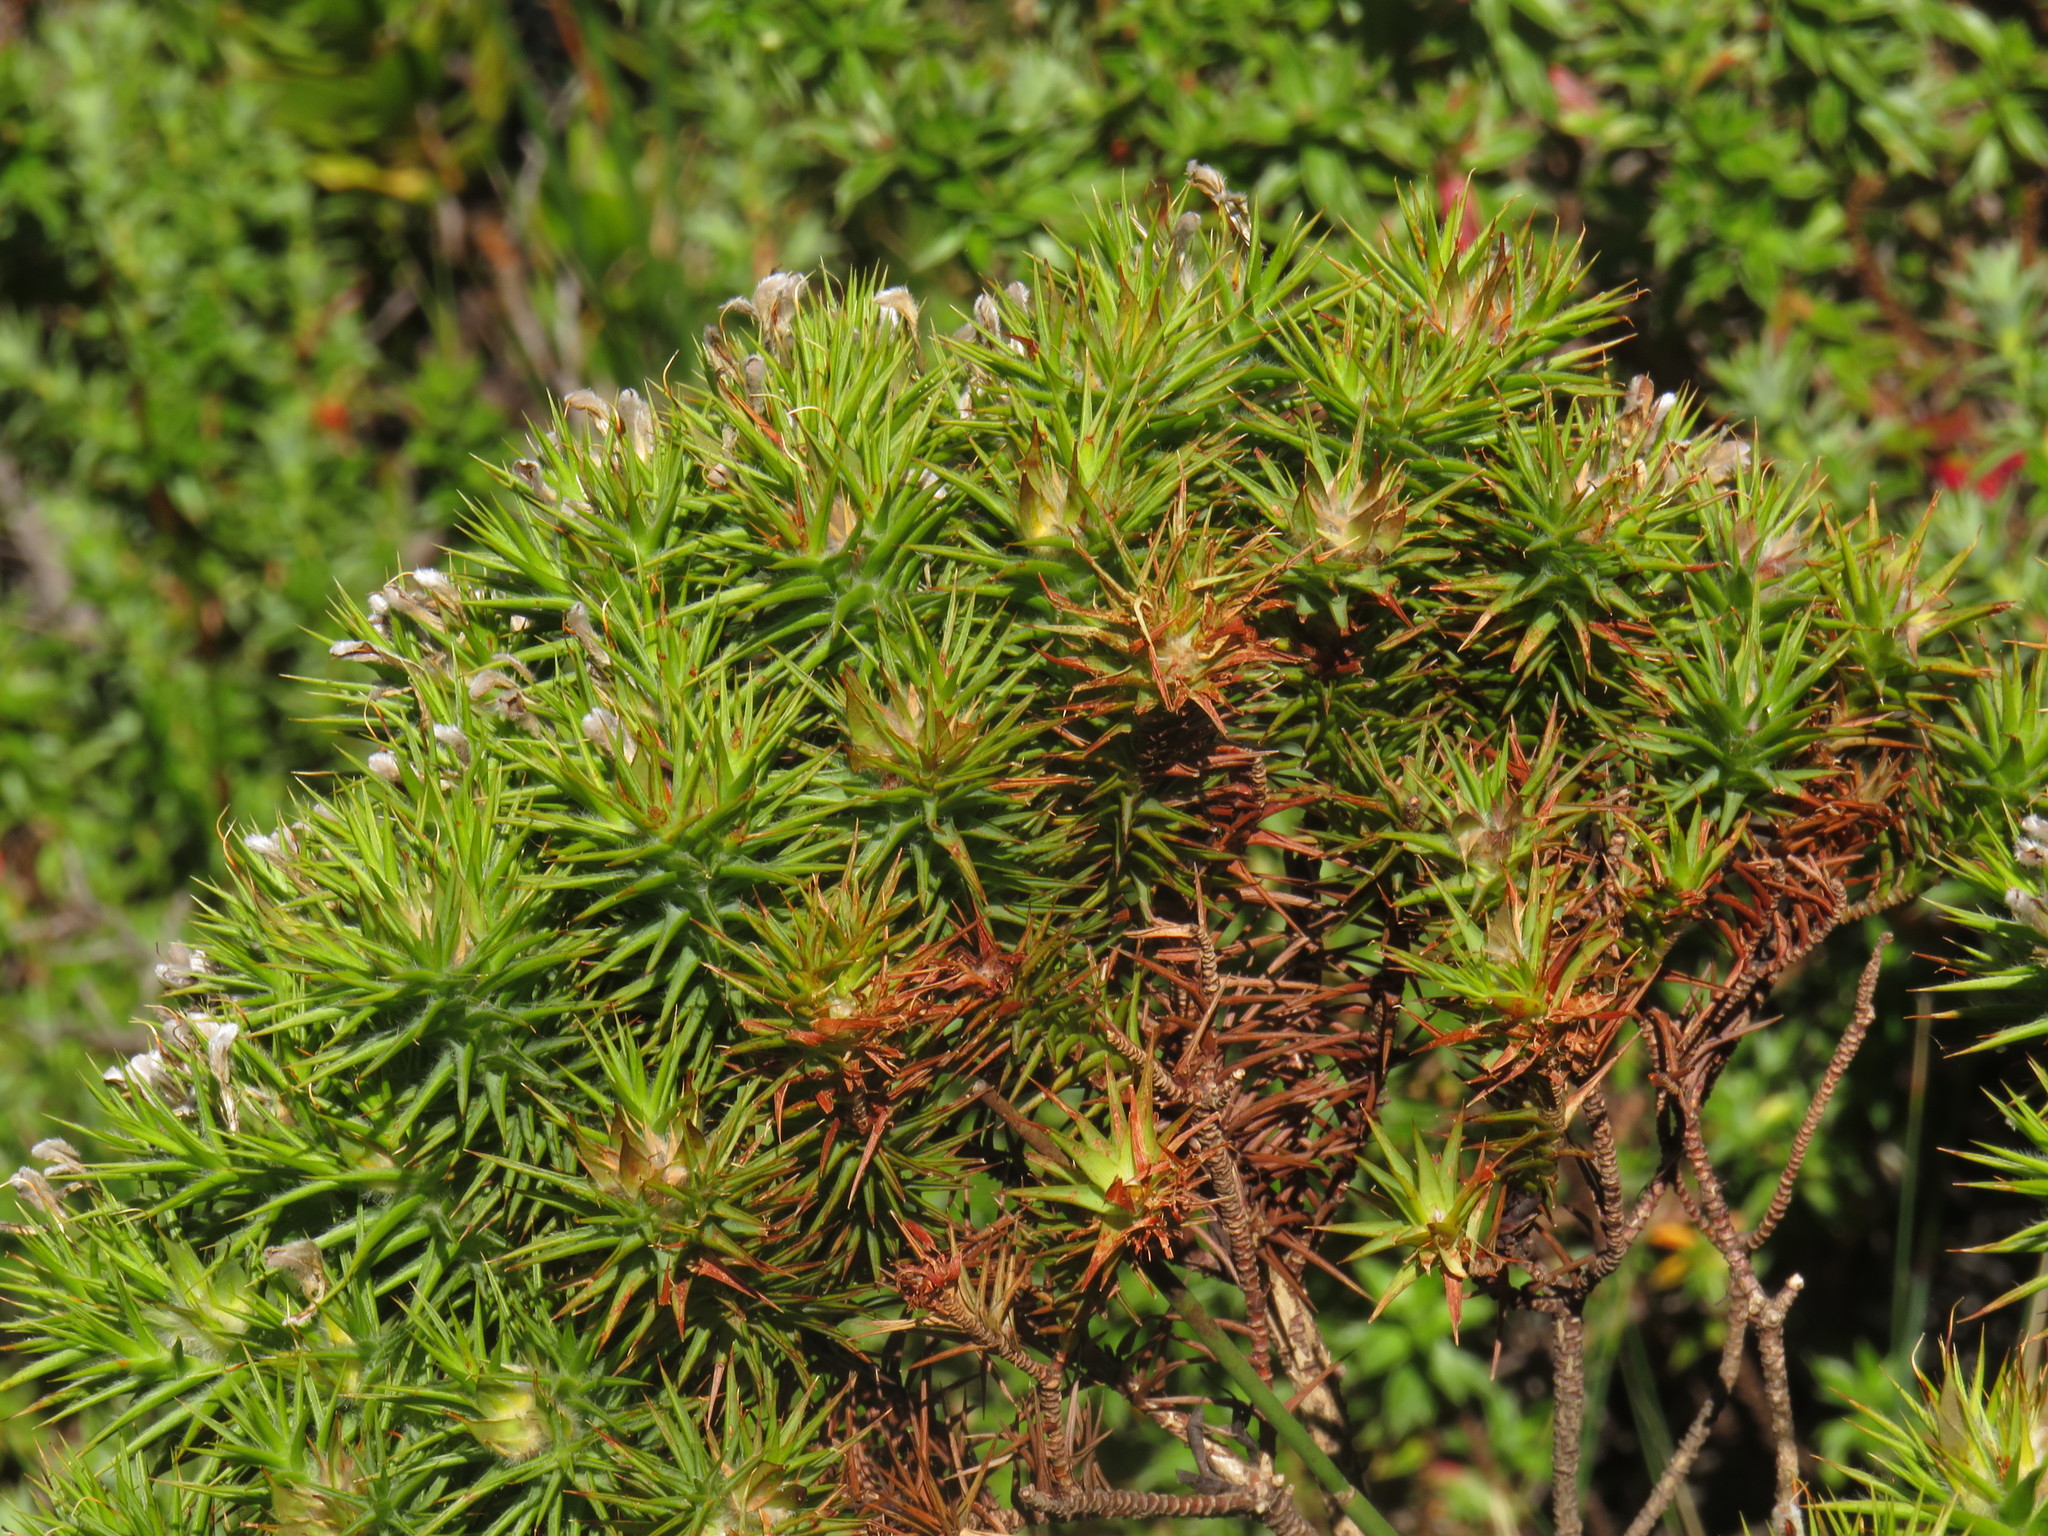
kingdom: Plantae
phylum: Tracheophyta
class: Magnoliopsida
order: Fabales
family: Fabaceae
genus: Aspalathus
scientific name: Aspalathus barbata
